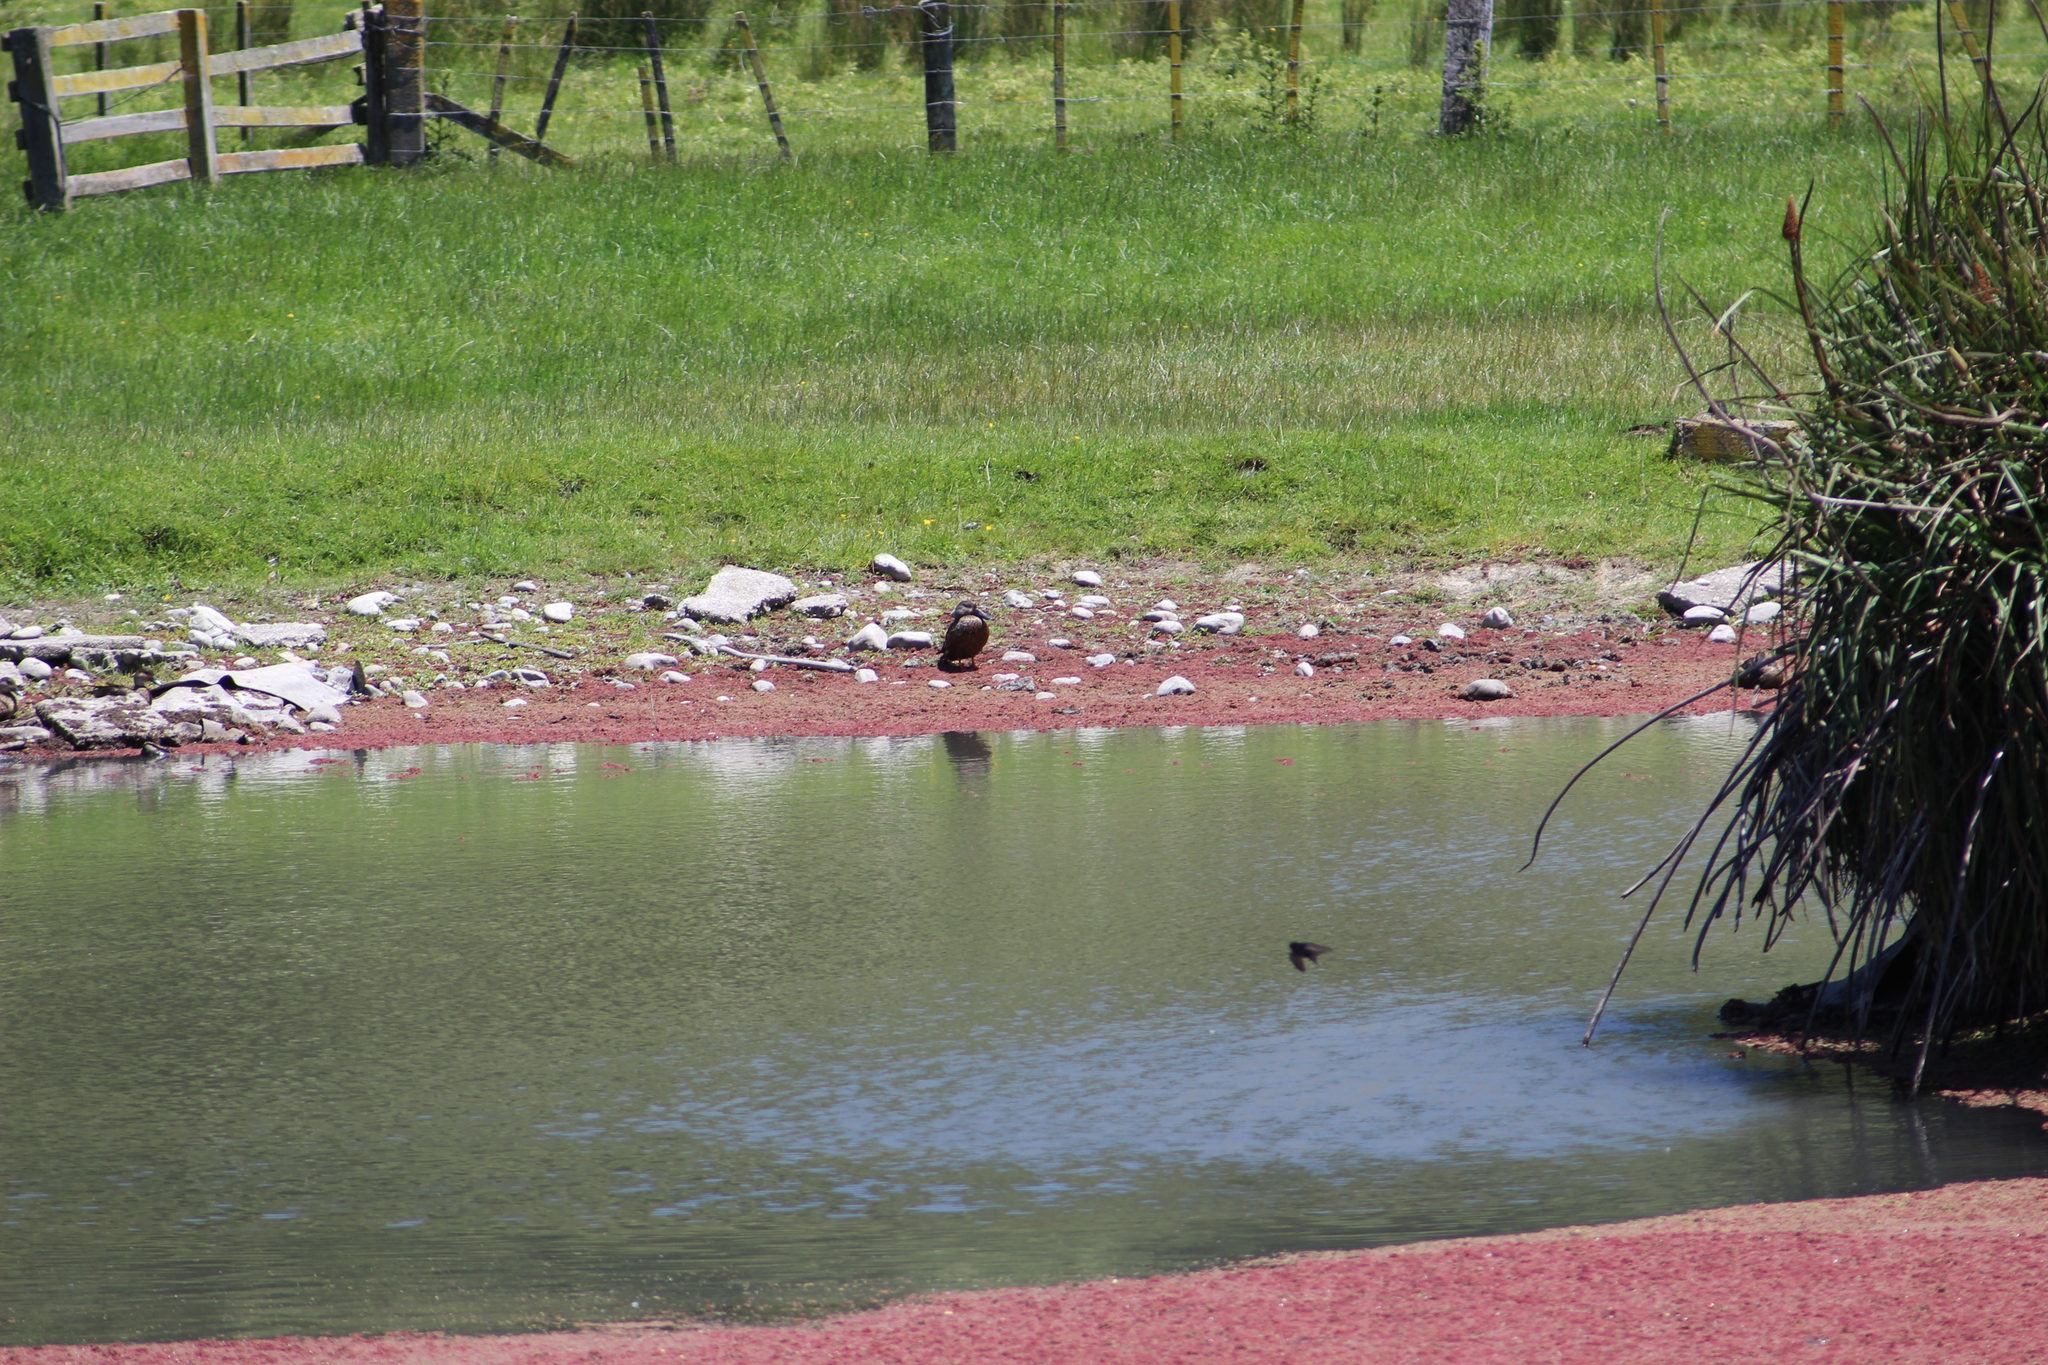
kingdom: Animalia
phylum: Chordata
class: Aves
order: Anseriformes
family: Anatidae
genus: Spatula
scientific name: Spatula rhynchotis
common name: Australian shoveler
